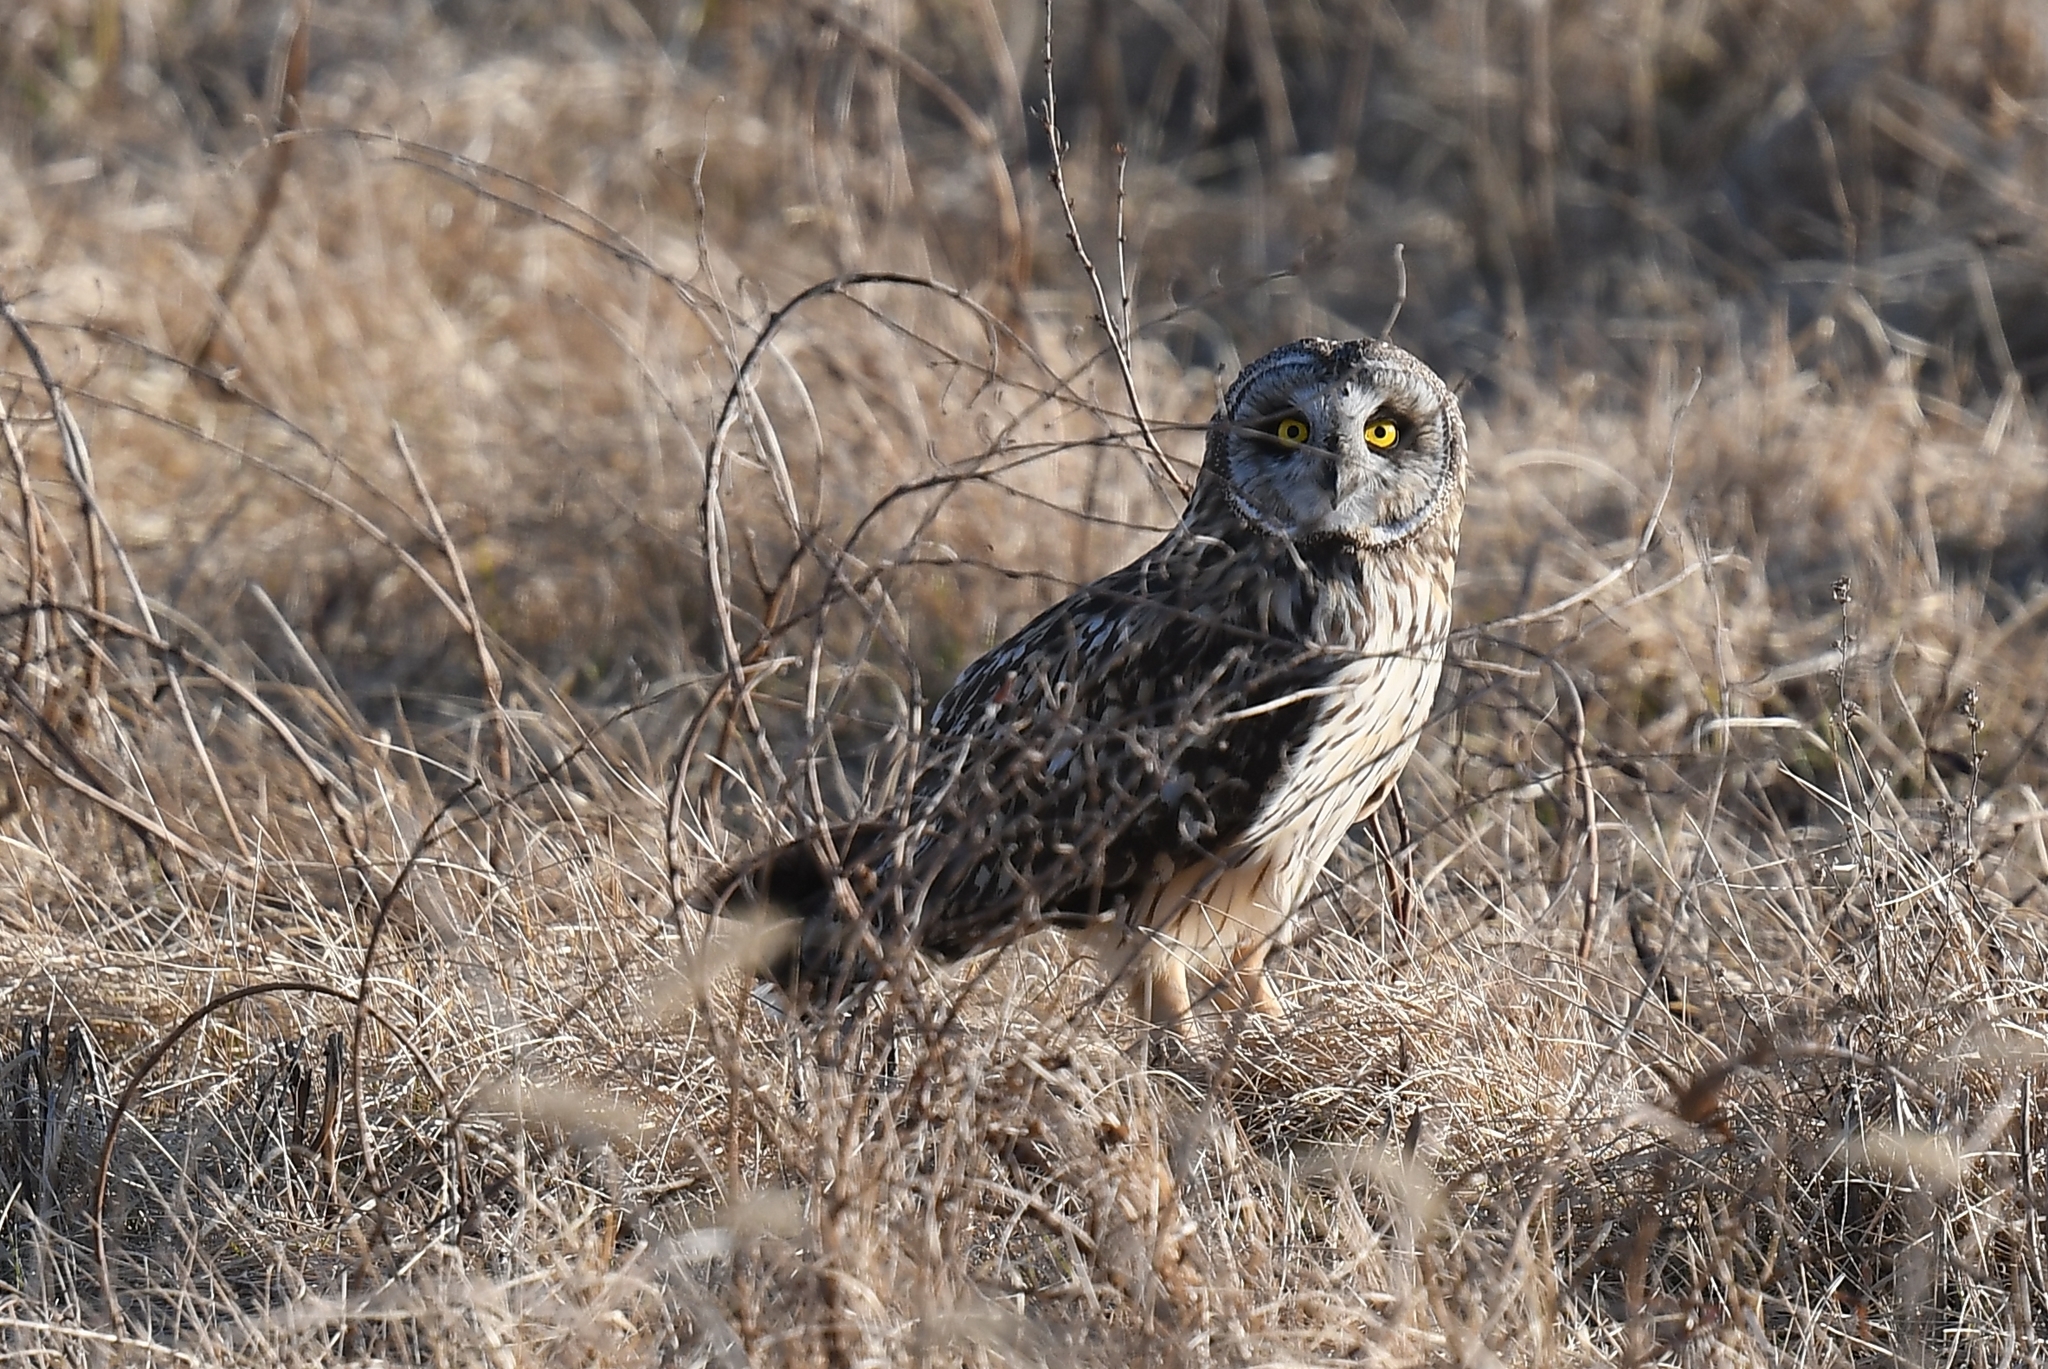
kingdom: Animalia
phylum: Chordata
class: Aves
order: Strigiformes
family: Strigidae
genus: Asio
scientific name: Asio flammeus
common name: Short-eared owl
